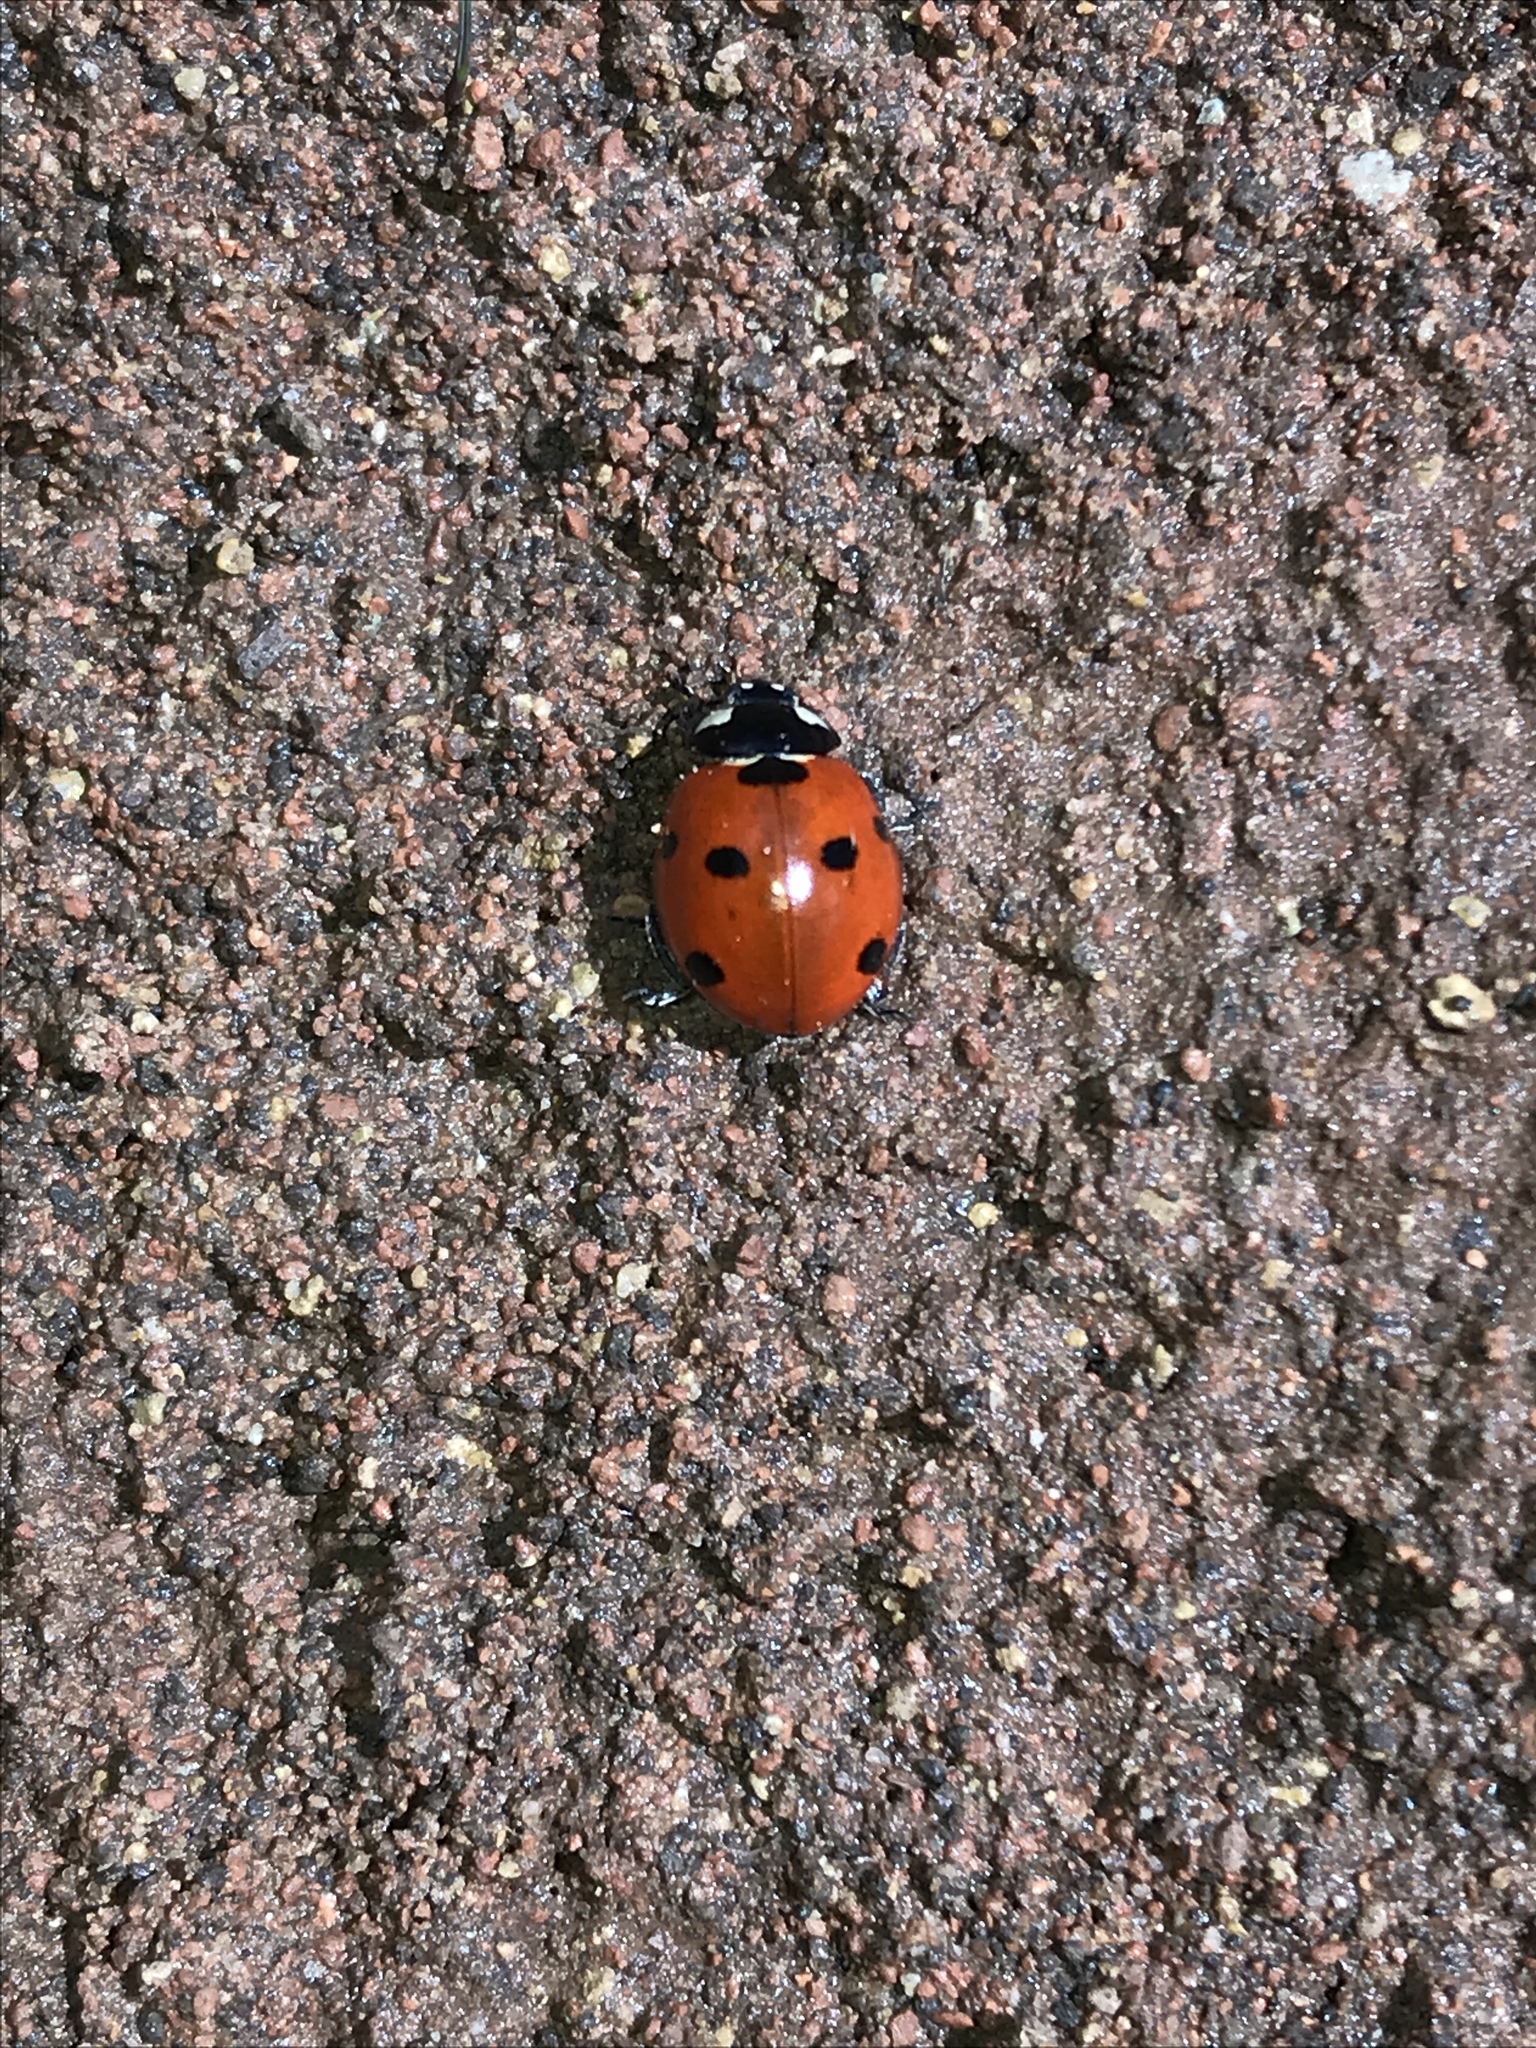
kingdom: Animalia
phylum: Arthropoda
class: Insecta
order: Coleoptera
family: Coccinellidae
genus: Coccinella
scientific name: Coccinella septempunctata
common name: Sevenspotted lady beetle
